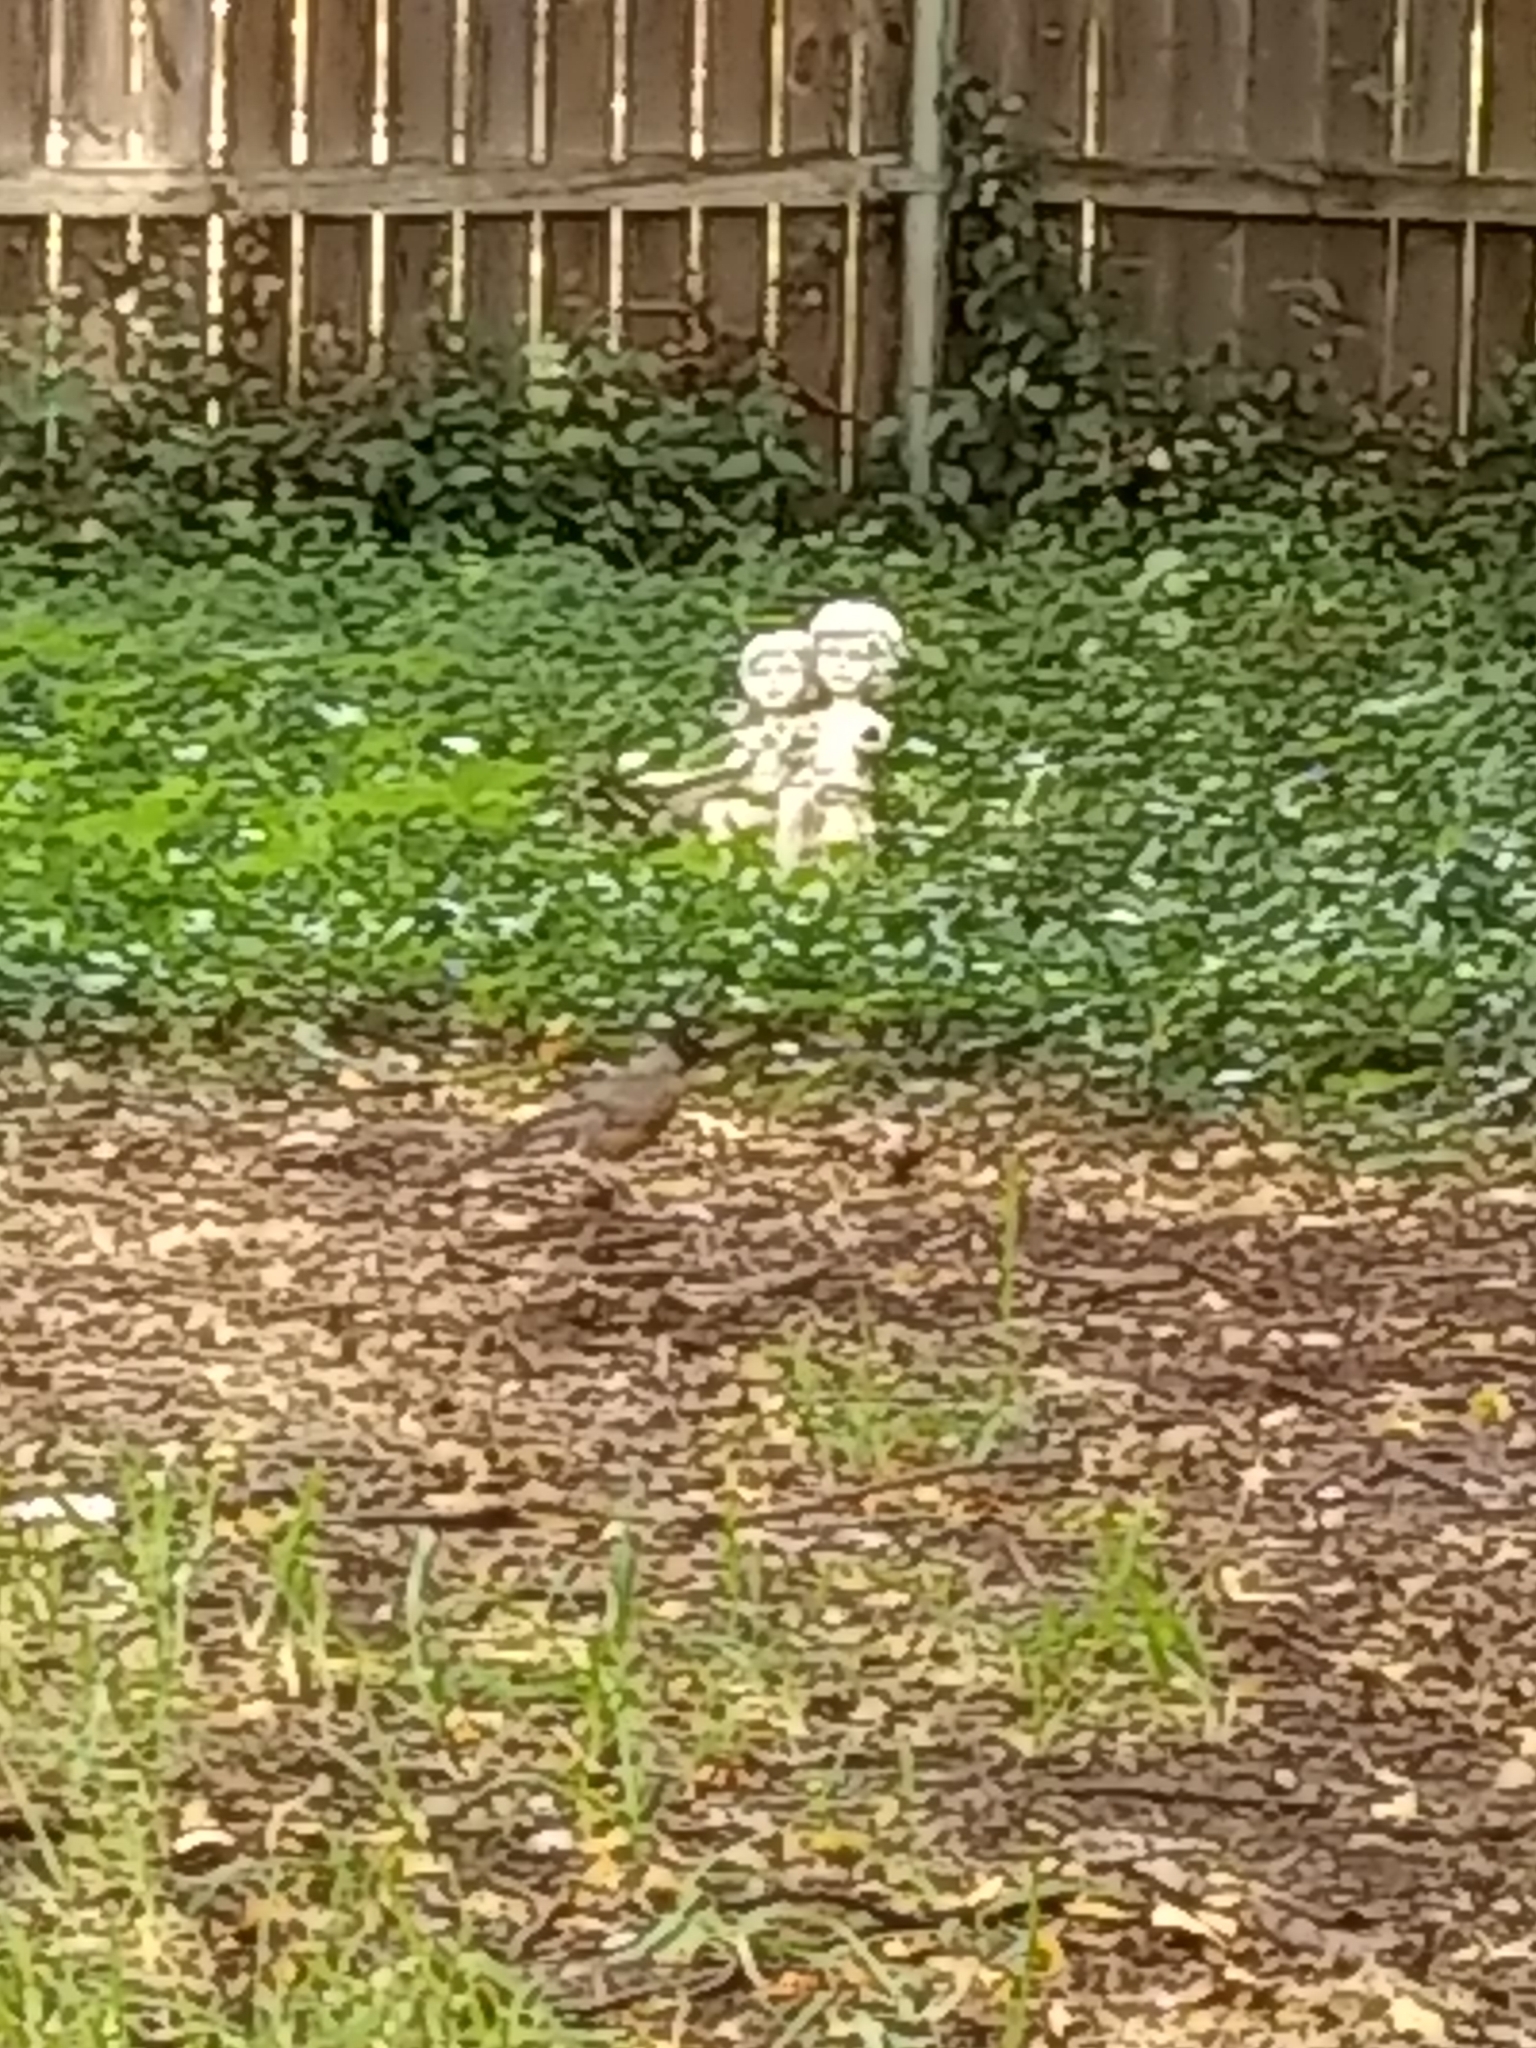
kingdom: Animalia
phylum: Chordata
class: Aves
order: Passeriformes
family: Turdidae
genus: Turdus
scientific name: Turdus migratorius
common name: American robin
